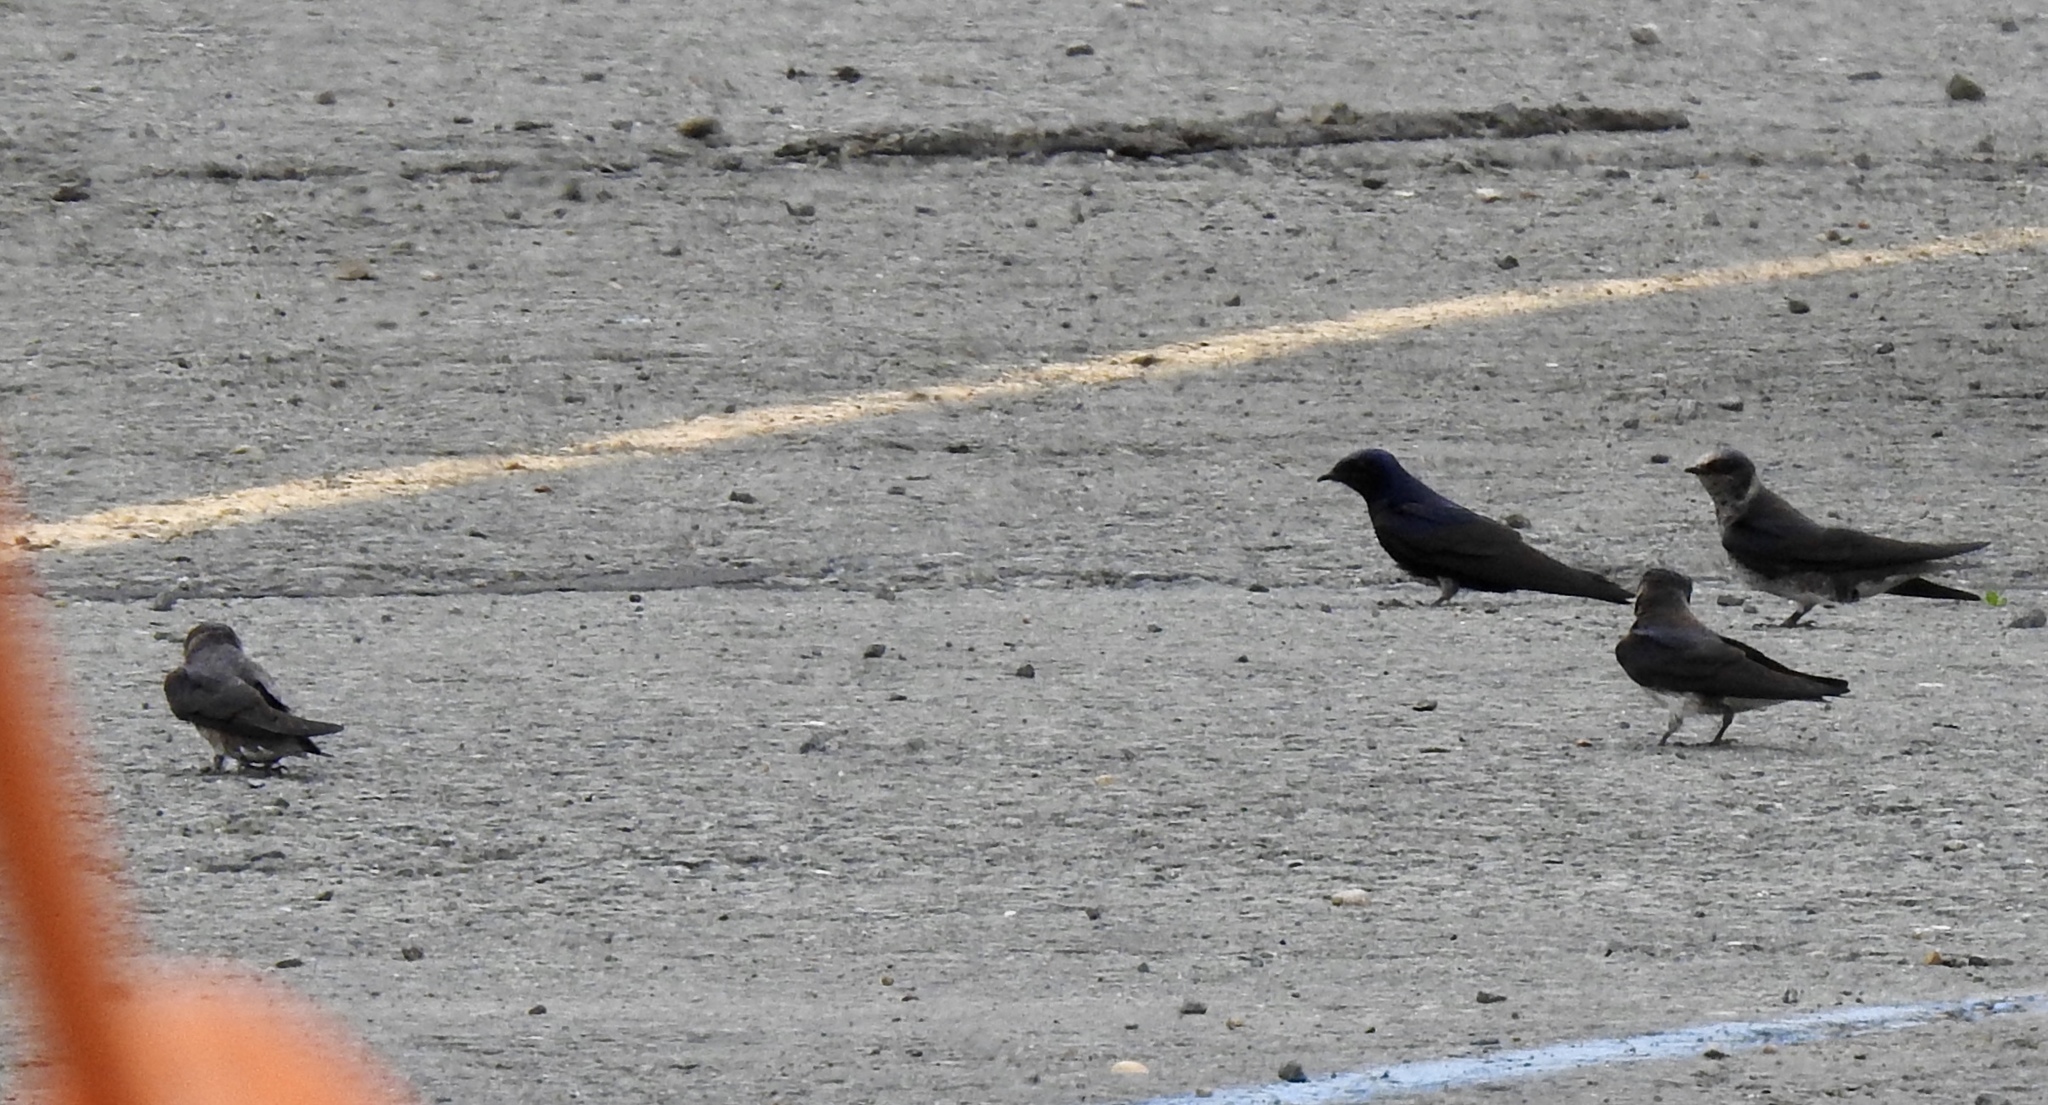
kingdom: Animalia
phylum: Chordata
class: Aves
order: Passeriformes
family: Hirundinidae
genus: Progne
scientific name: Progne subis
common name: Purple martin
